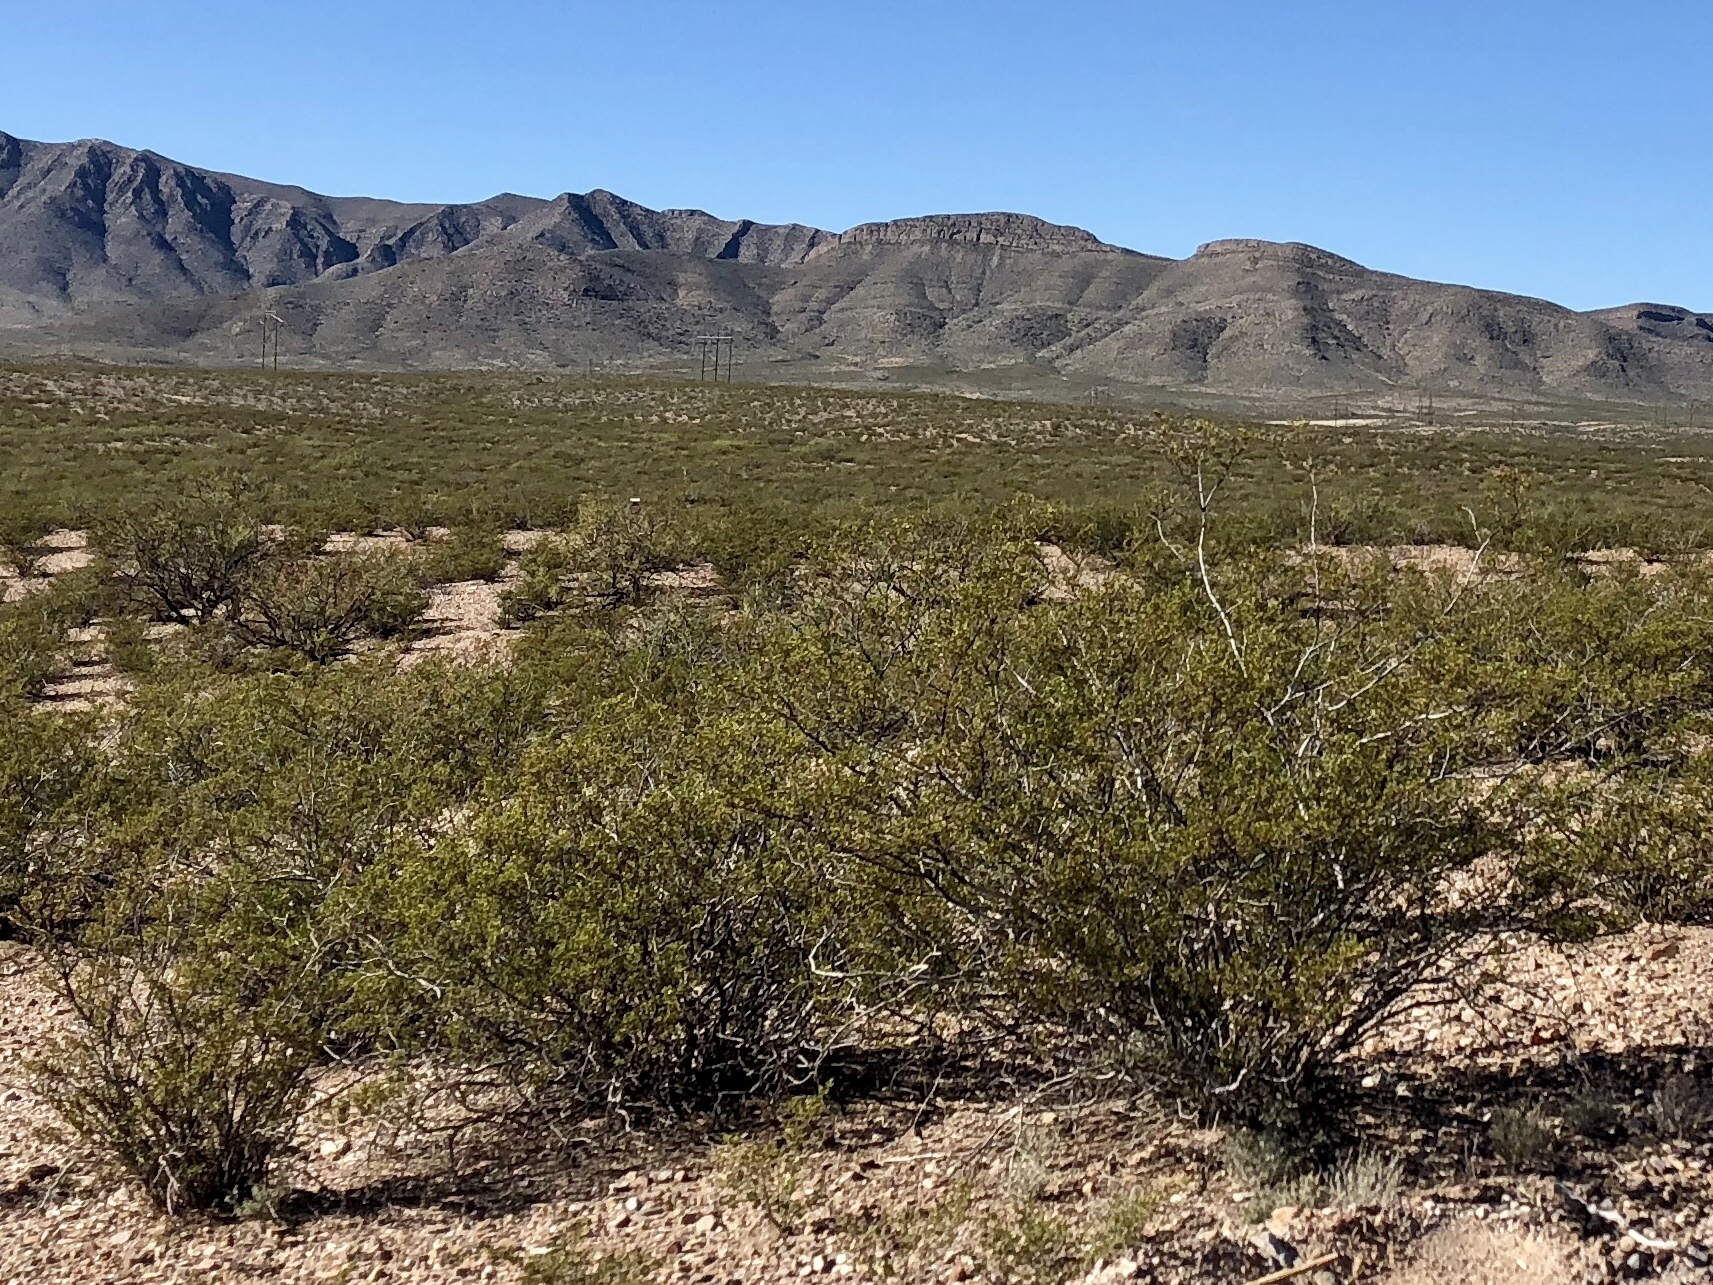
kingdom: Plantae
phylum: Tracheophyta
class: Magnoliopsida
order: Zygophyllales
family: Zygophyllaceae
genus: Larrea
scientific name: Larrea tridentata
